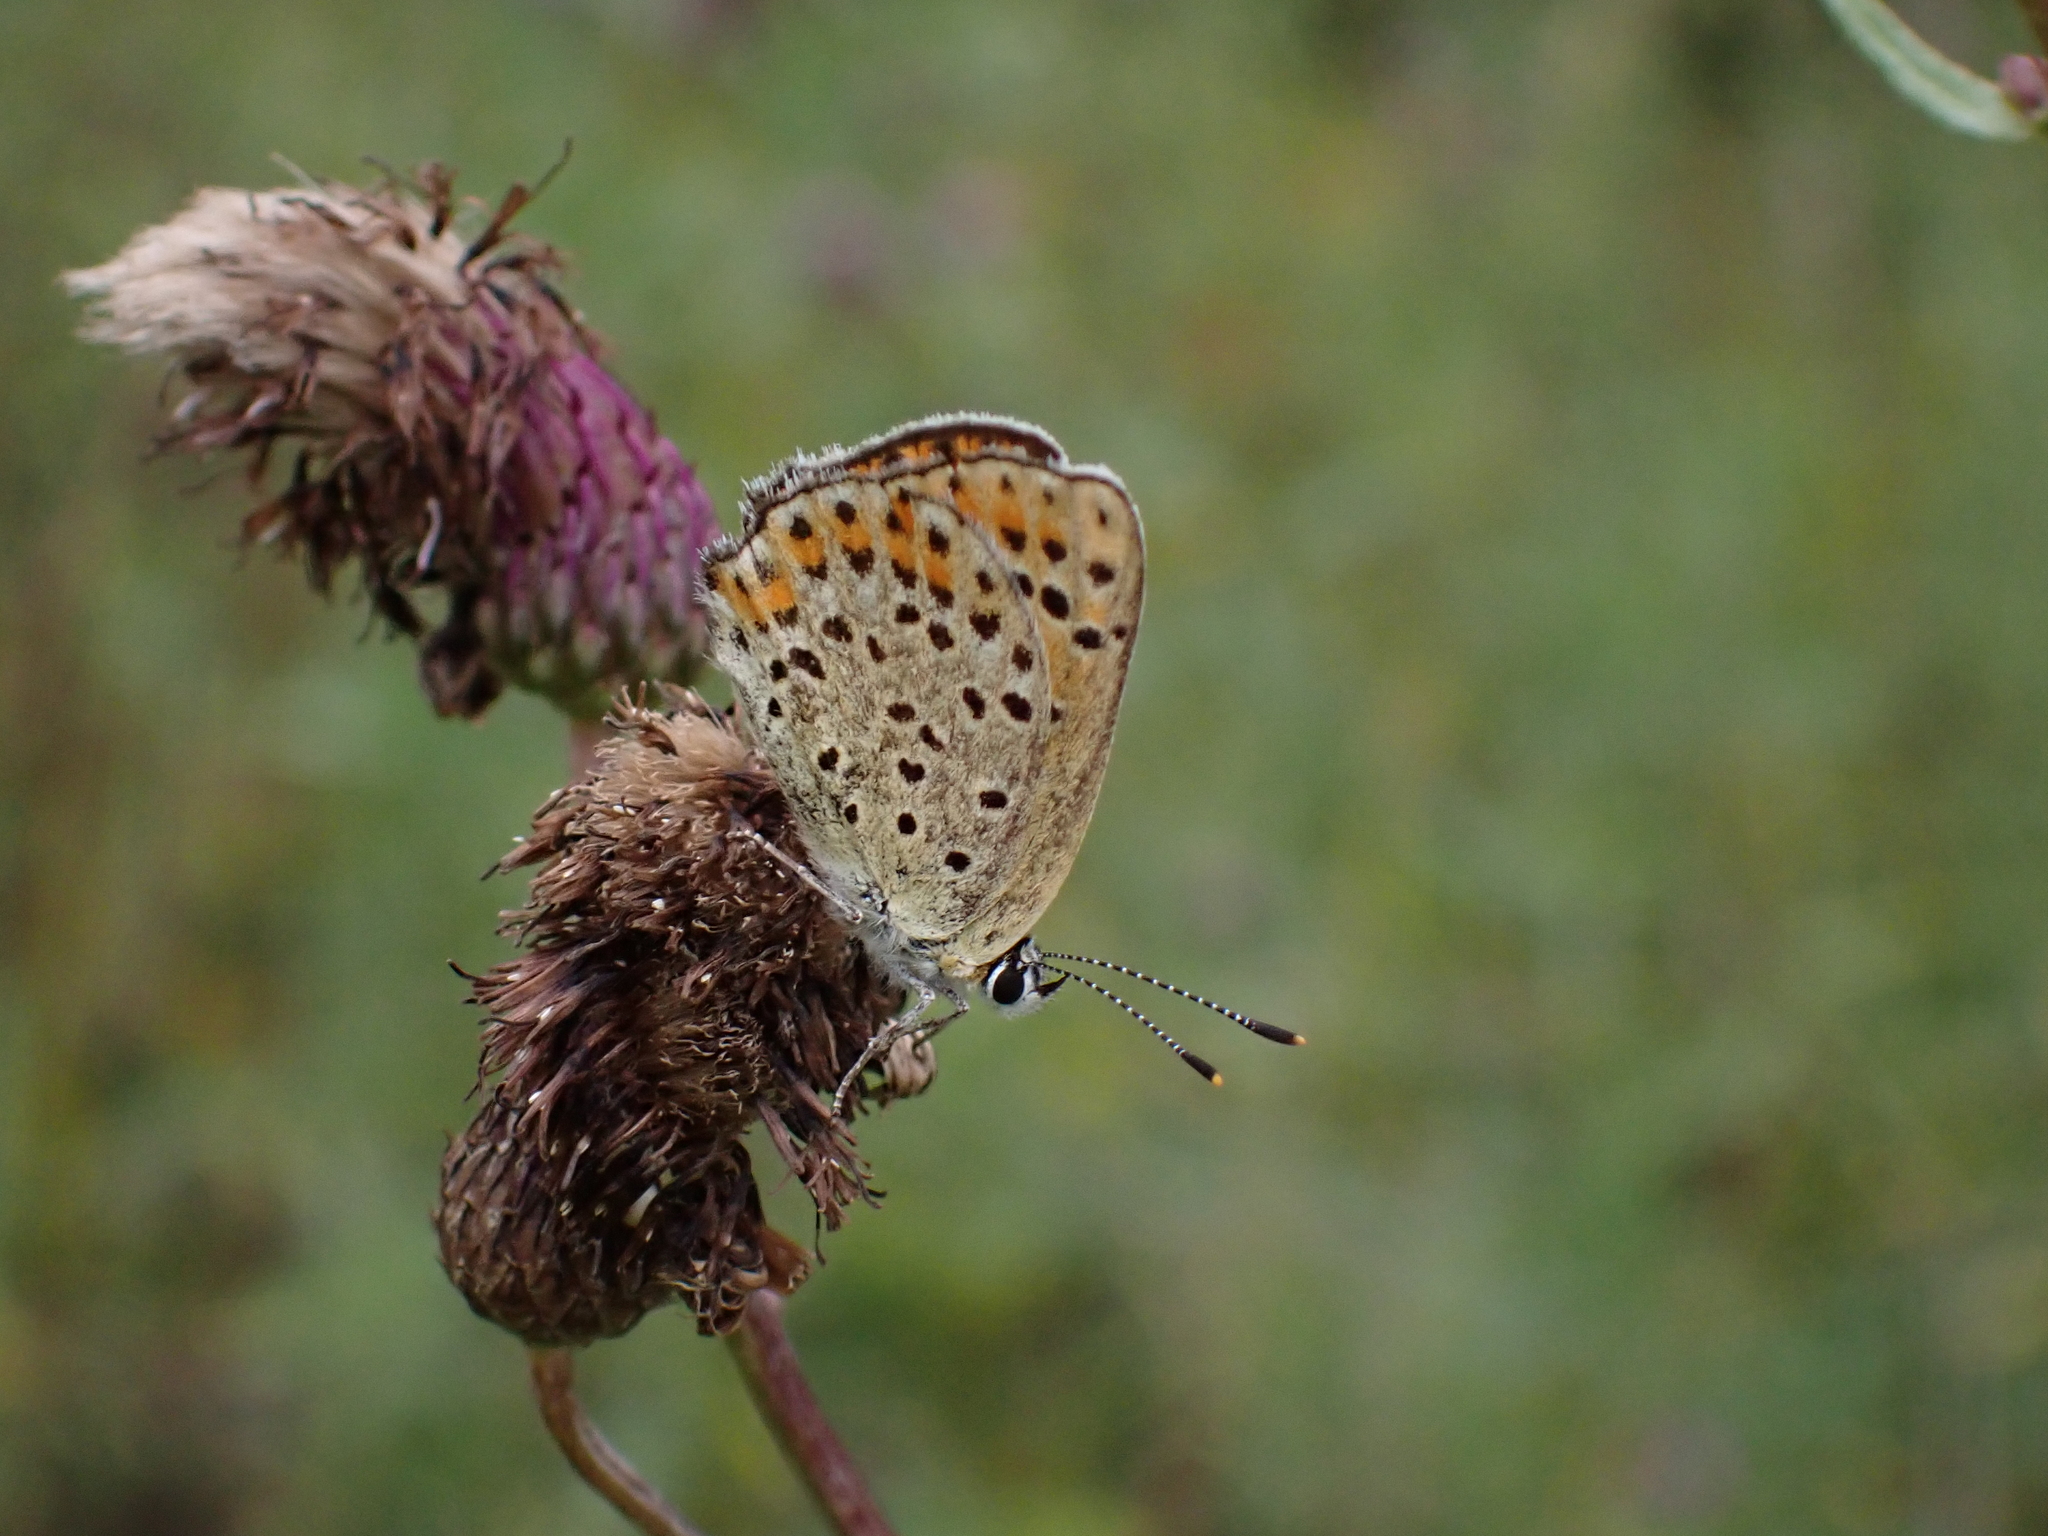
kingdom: Animalia
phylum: Arthropoda
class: Insecta
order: Lepidoptera
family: Lycaenidae
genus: Loweia
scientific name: Loweia tityrus
